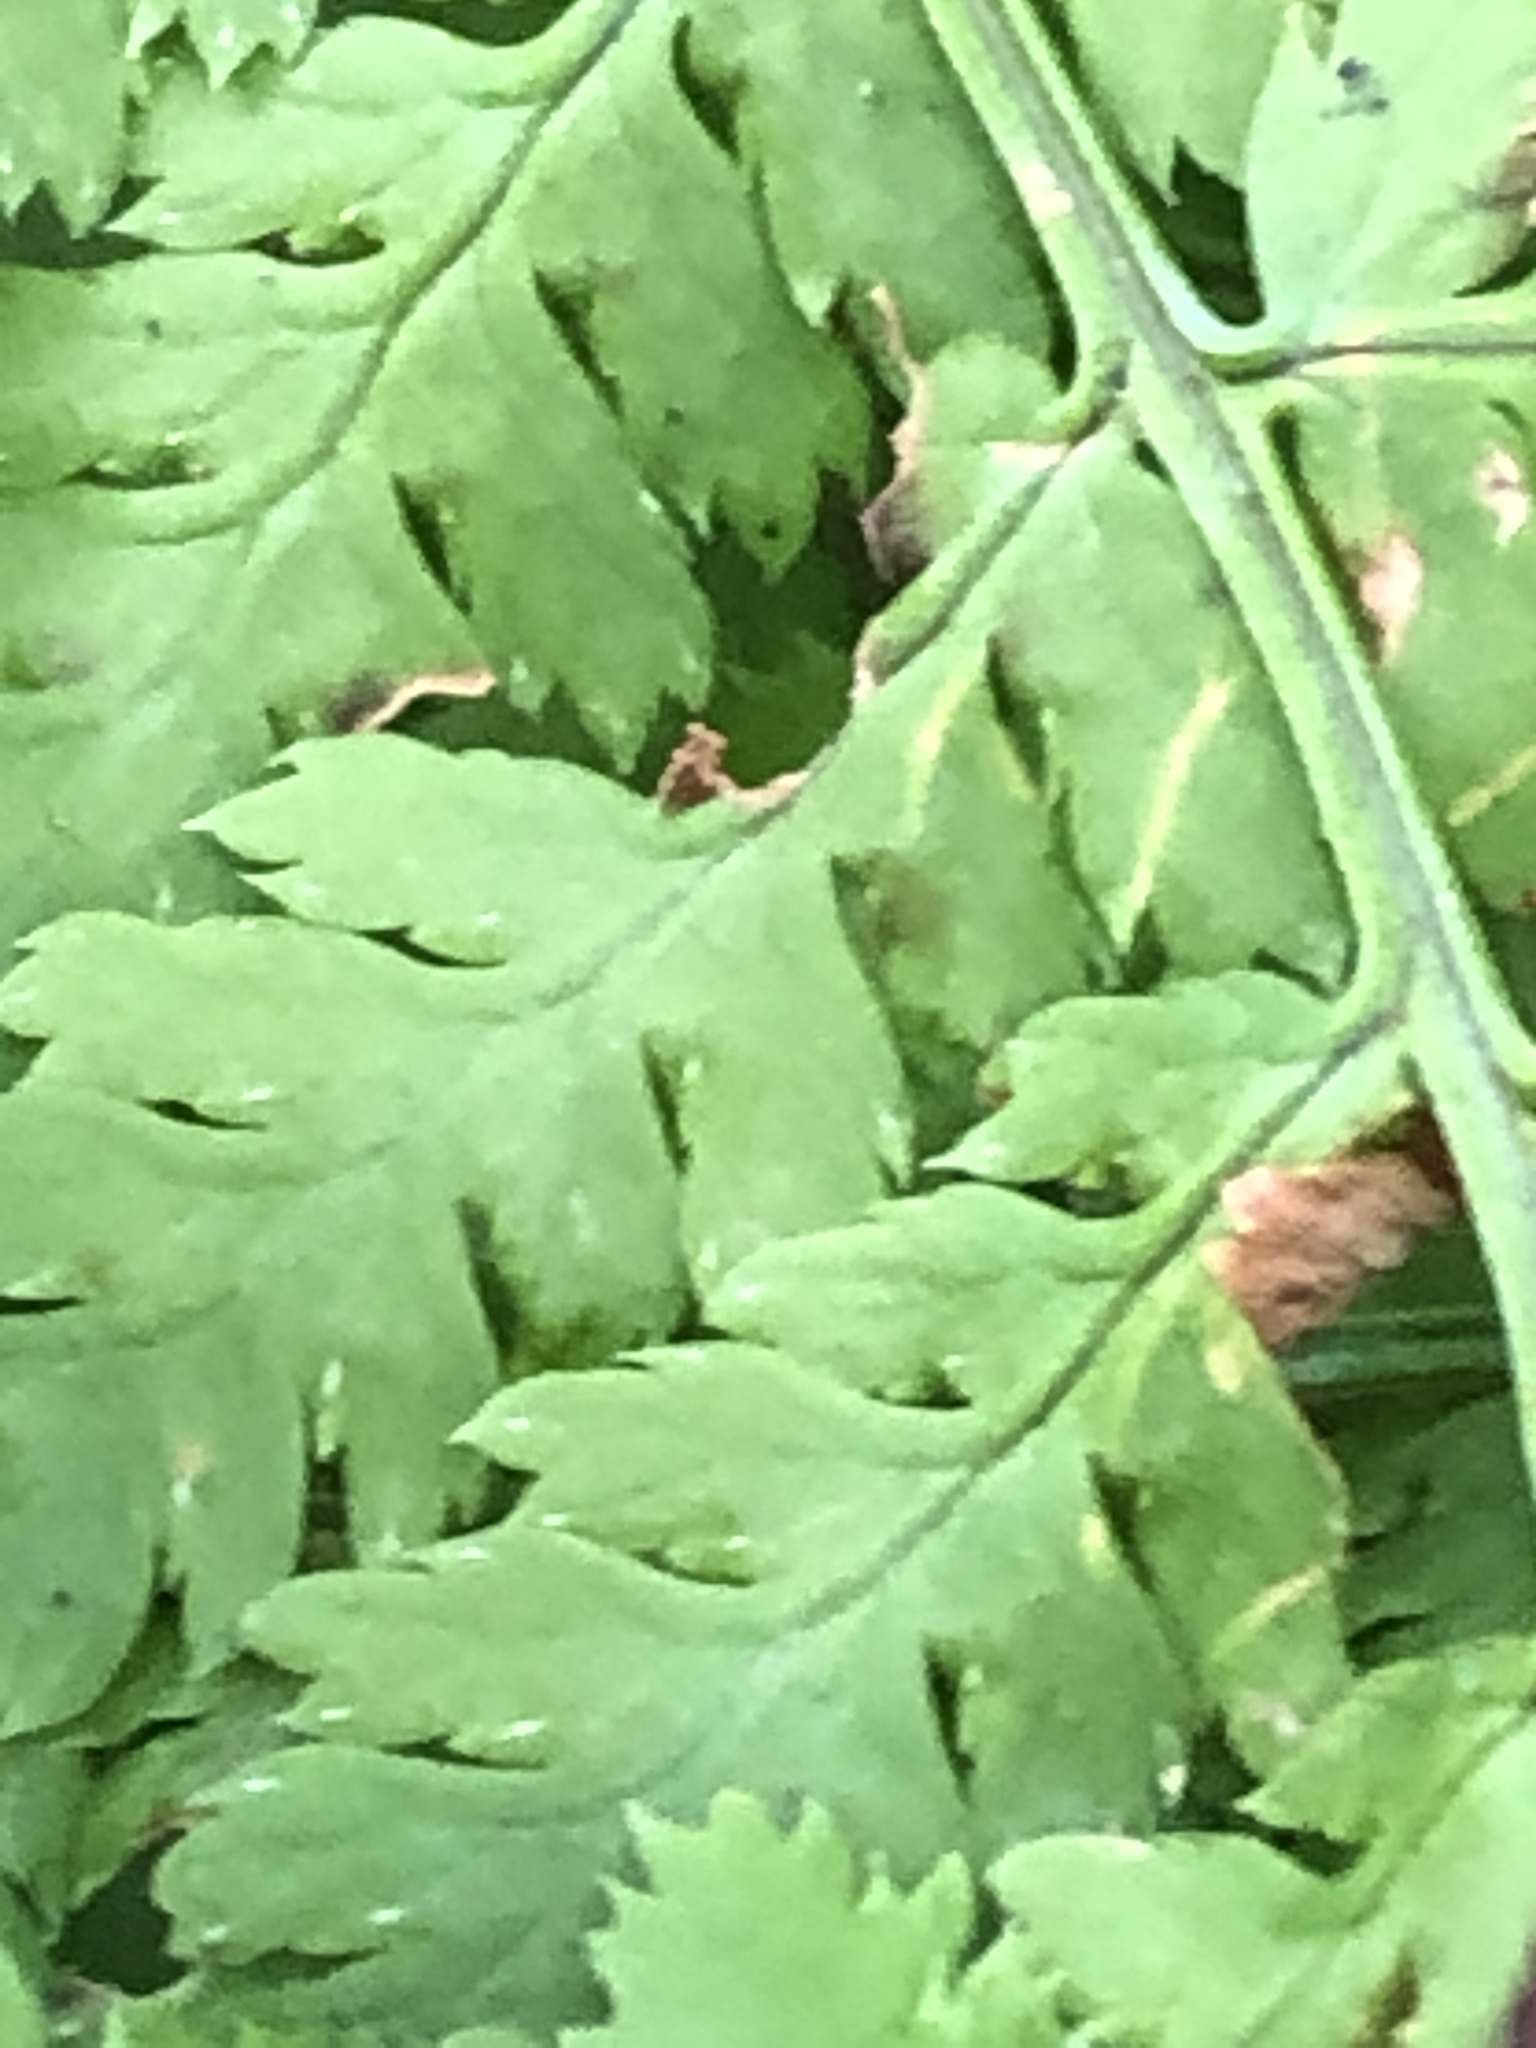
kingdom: Plantae
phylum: Tracheophyta
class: Polypodiopsida
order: Polypodiales
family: Dryopteridaceae
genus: Dryopteris
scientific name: Dryopteris campyloptera
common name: Mountain wood fern
